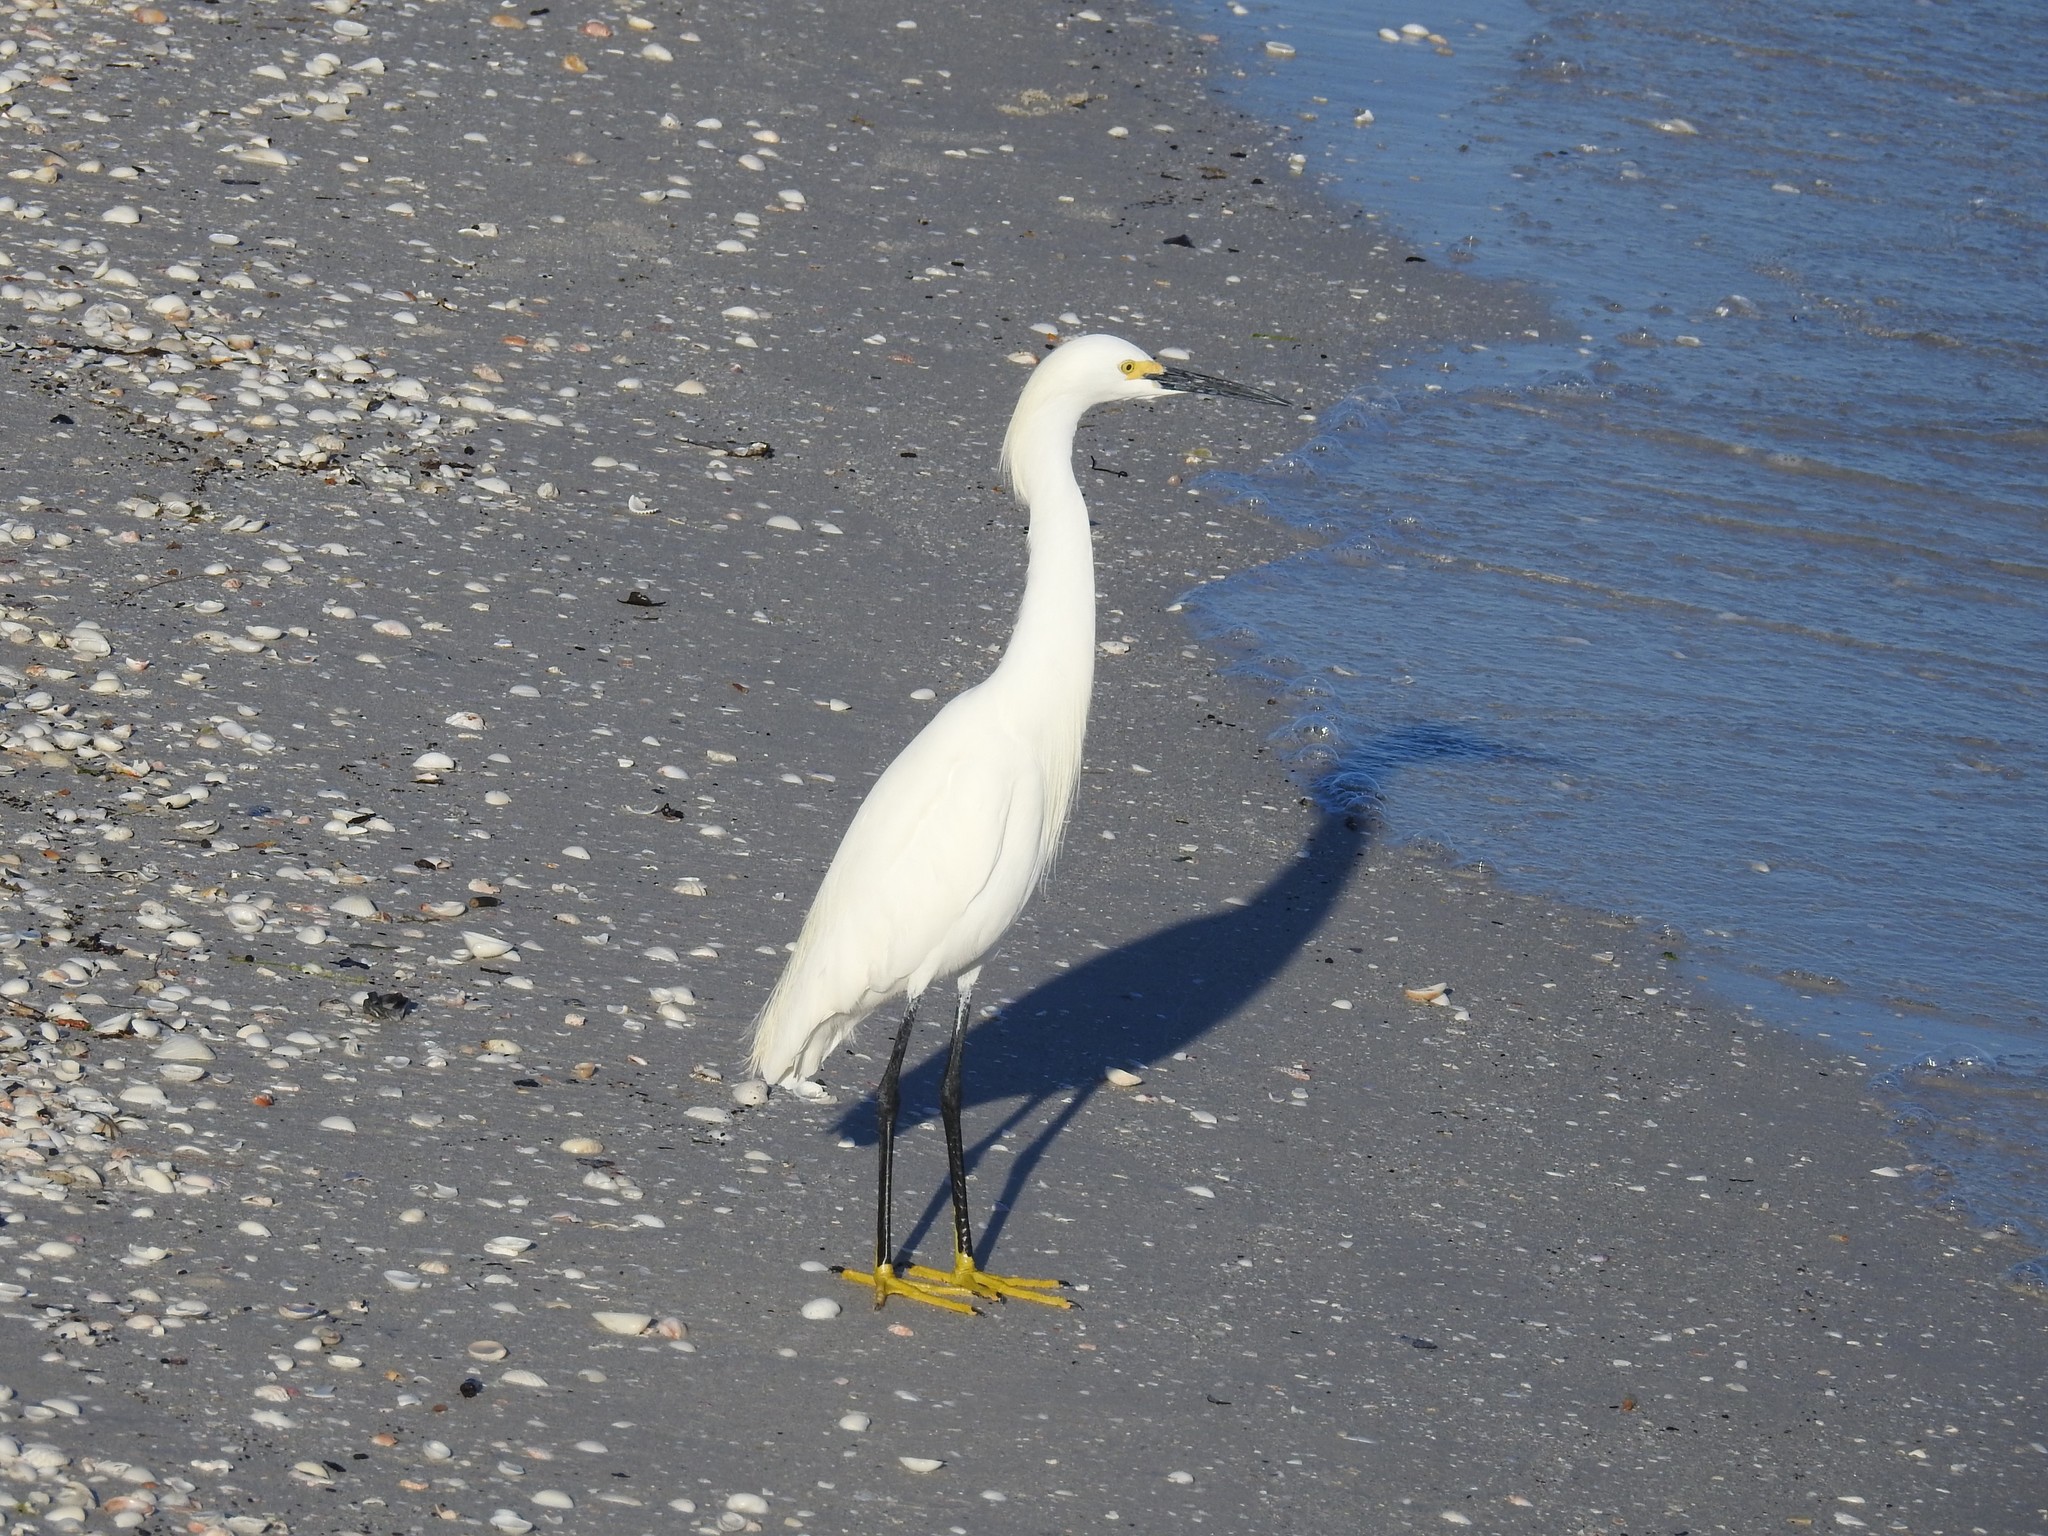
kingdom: Animalia
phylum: Chordata
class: Aves
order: Pelecaniformes
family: Ardeidae
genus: Egretta
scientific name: Egretta thula
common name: Snowy egret
